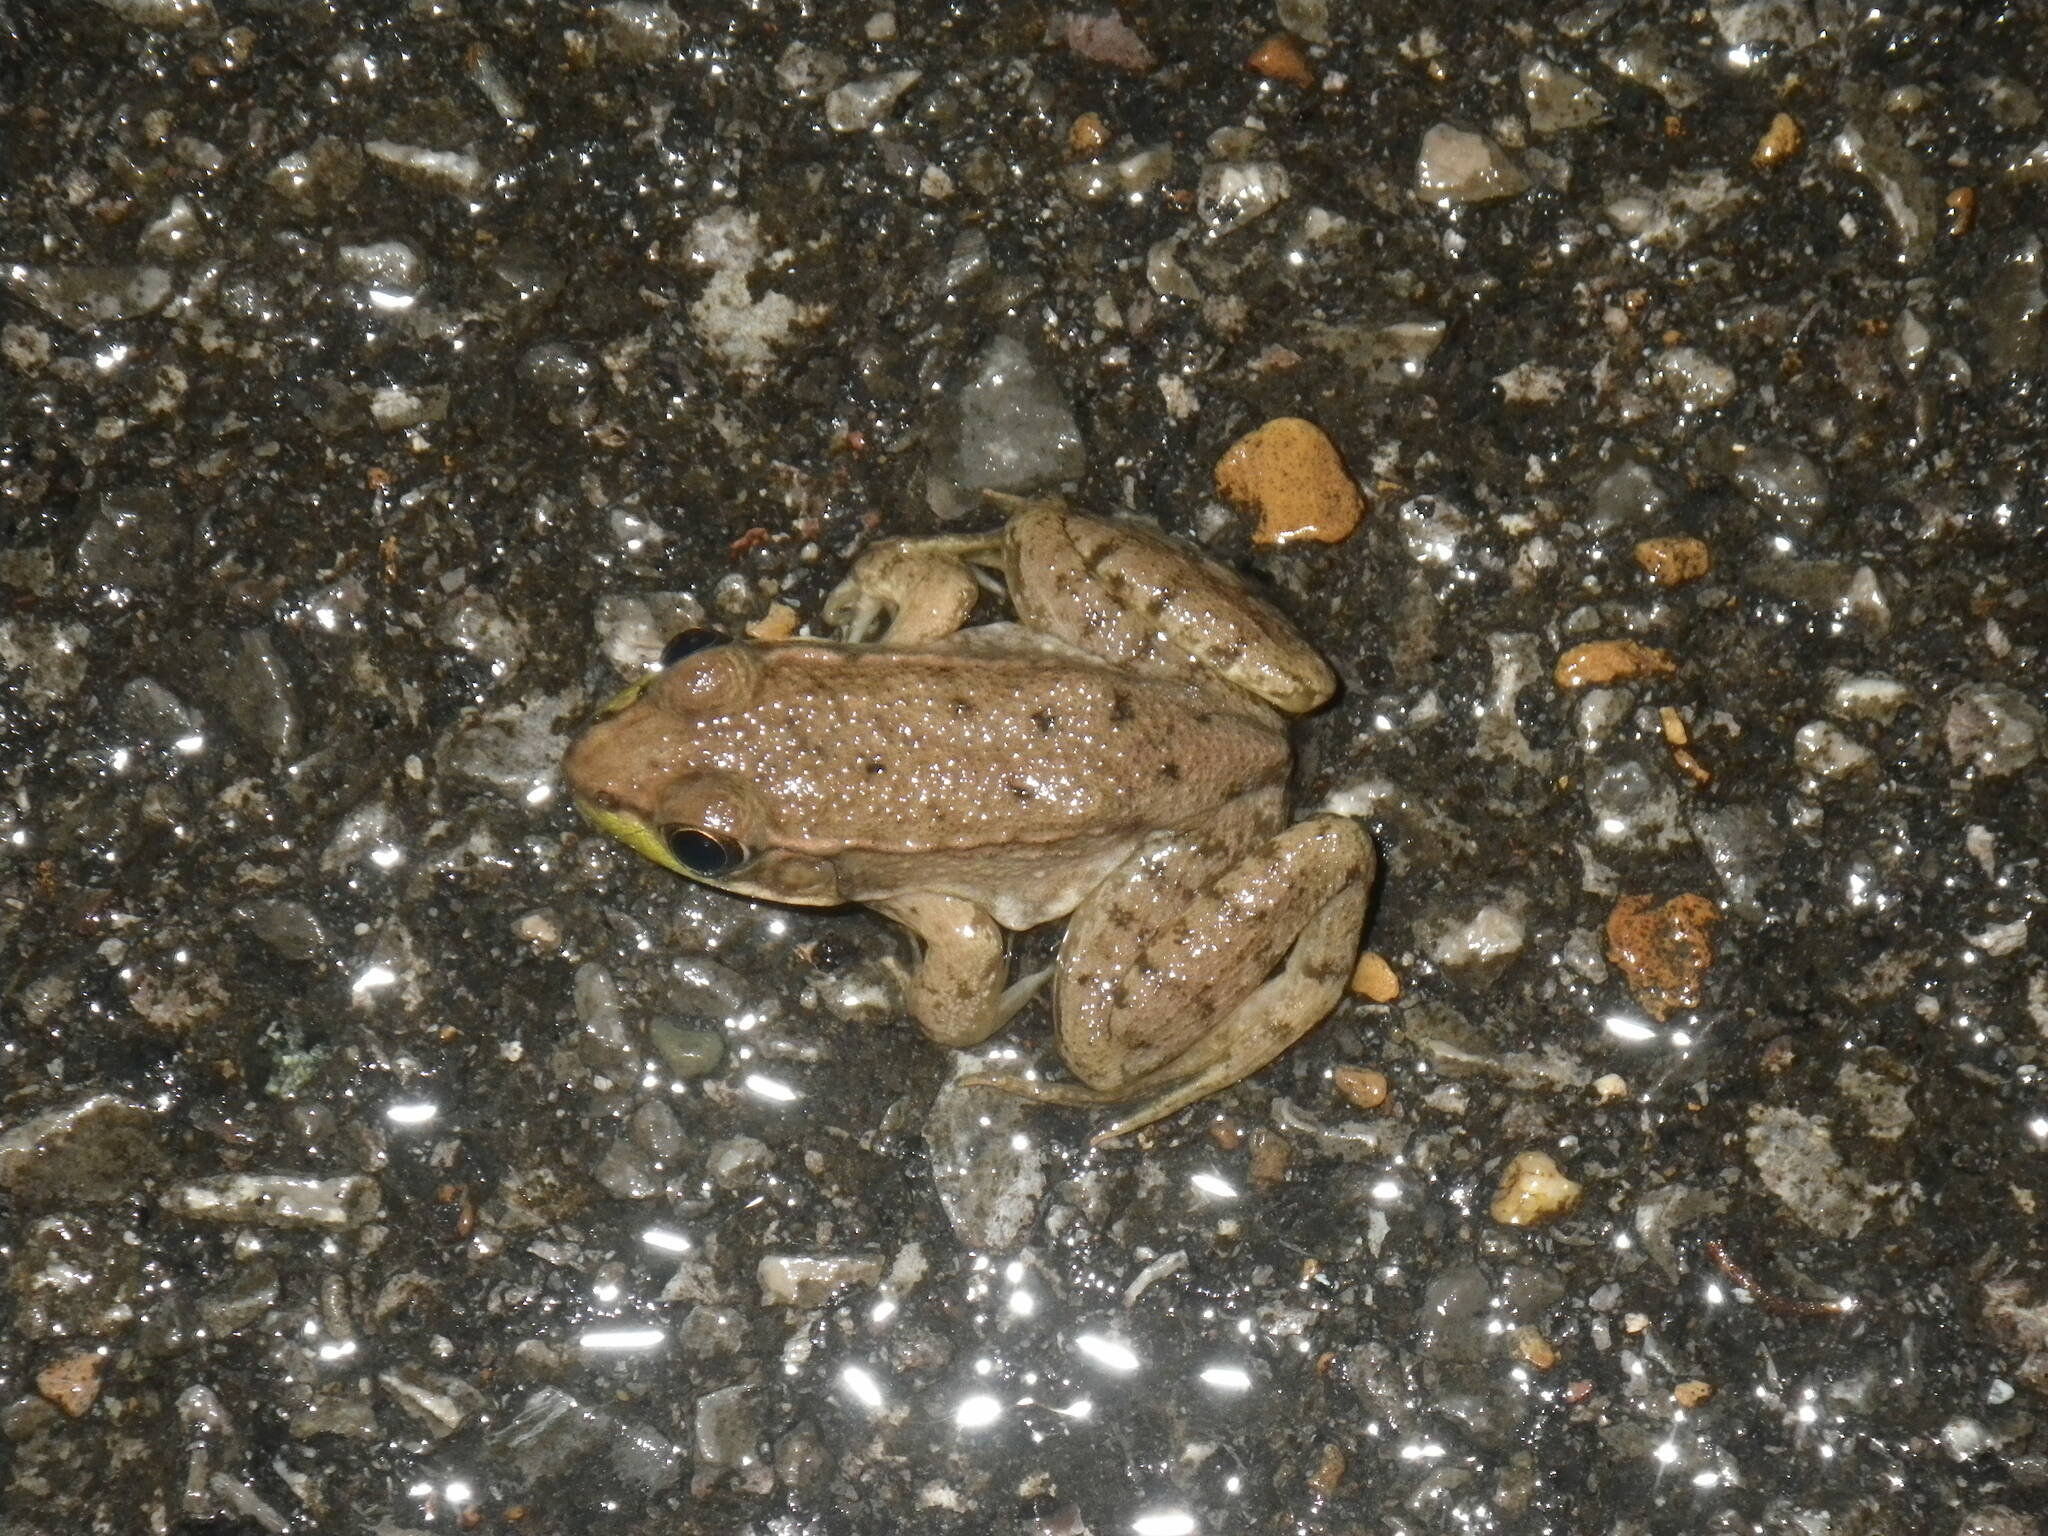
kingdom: Animalia
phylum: Chordata
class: Amphibia
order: Anura
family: Ranidae
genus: Lithobates
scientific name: Lithobates clamitans
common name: Green frog
